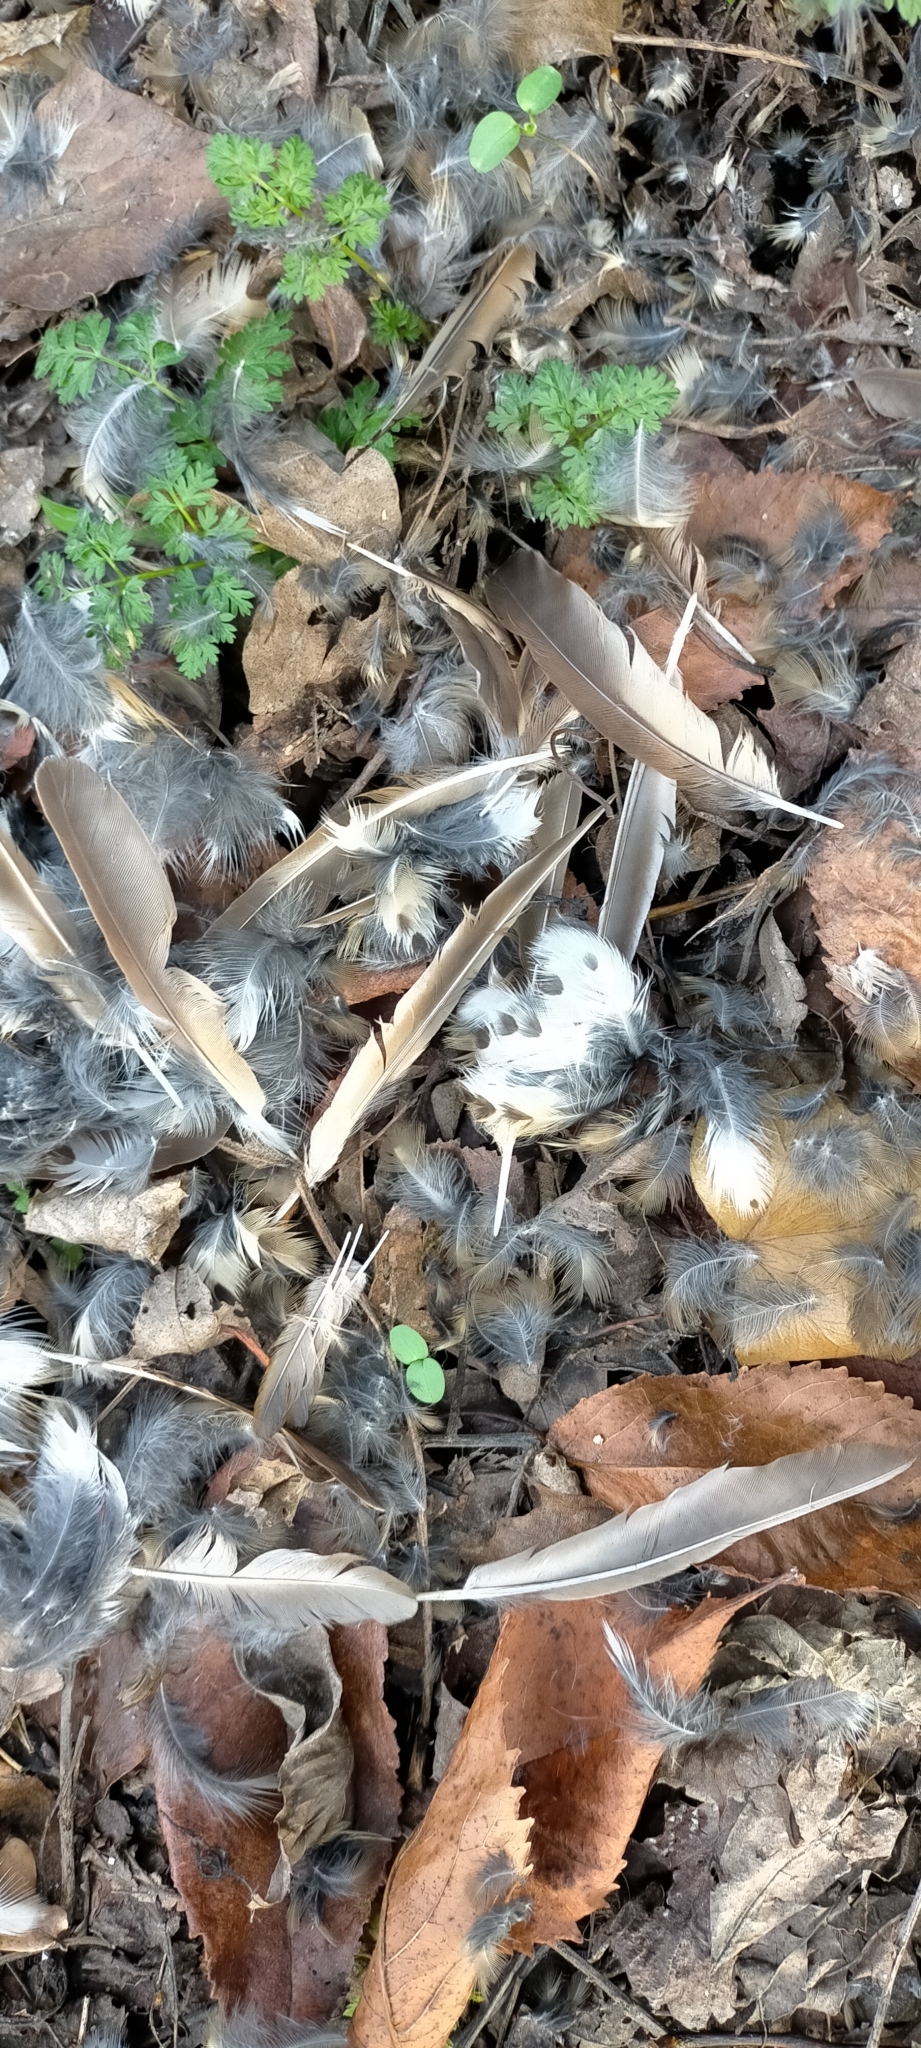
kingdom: Animalia
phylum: Chordata
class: Aves
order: Passeriformes
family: Turdidae
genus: Turdus
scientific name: Turdus philomelos
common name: Song thrush
